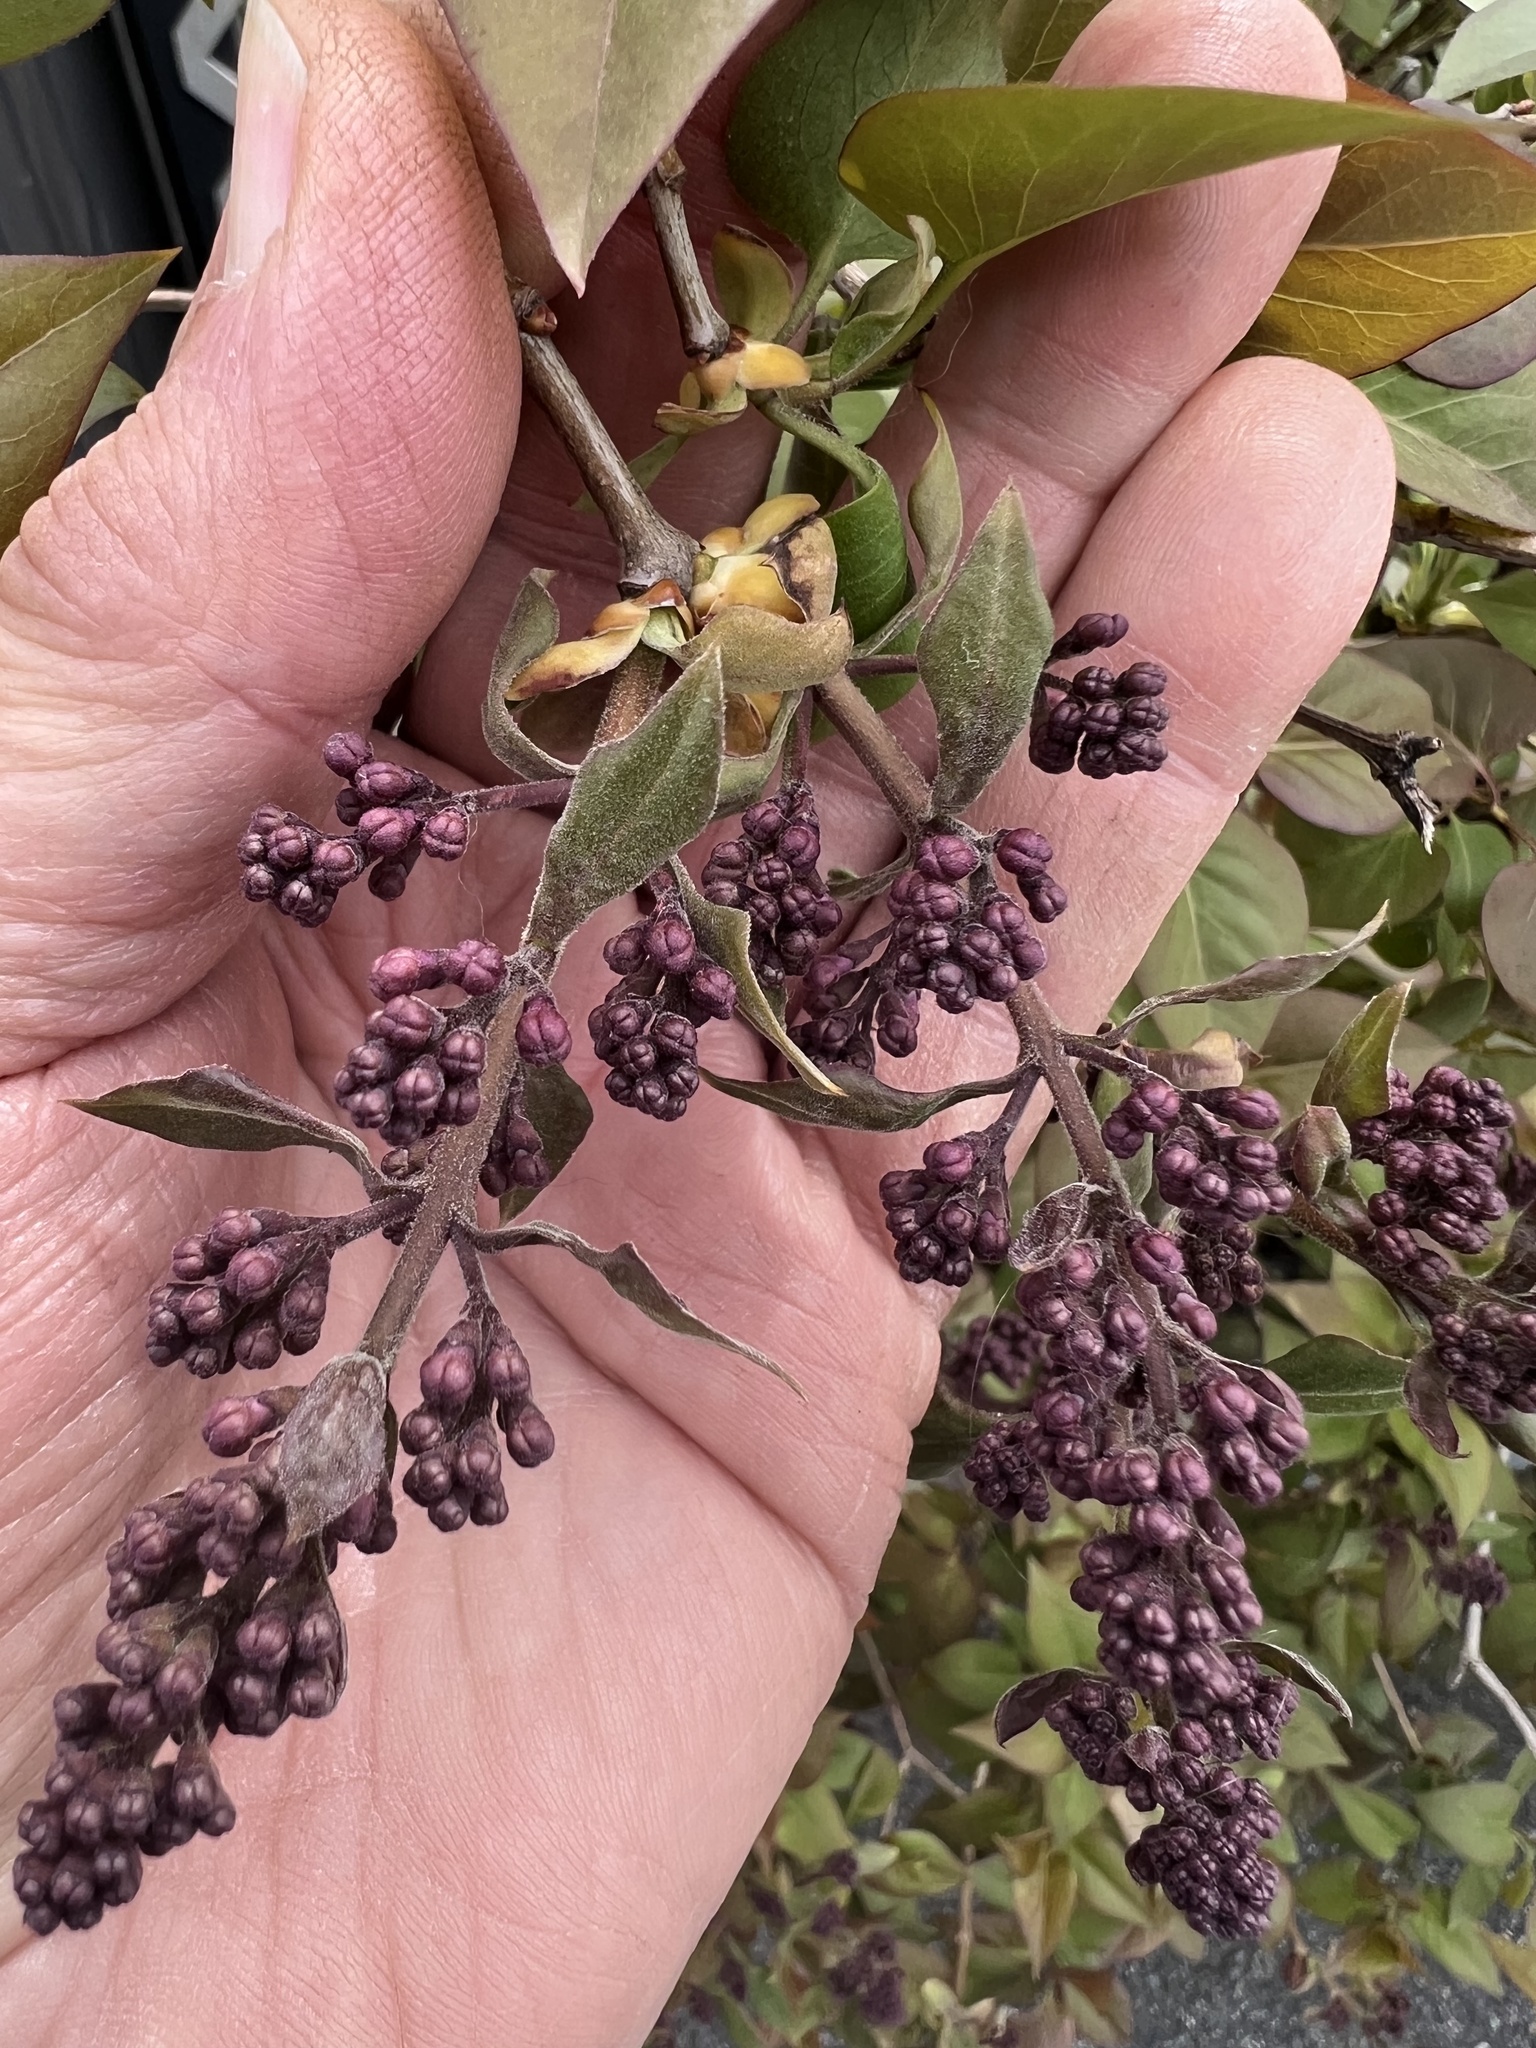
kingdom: Plantae
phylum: Tracheophyta
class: Magnoliopsida
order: Lamiales
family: Oleaceae
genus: Syringa
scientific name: Syringa vulgaris
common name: Common lilac
